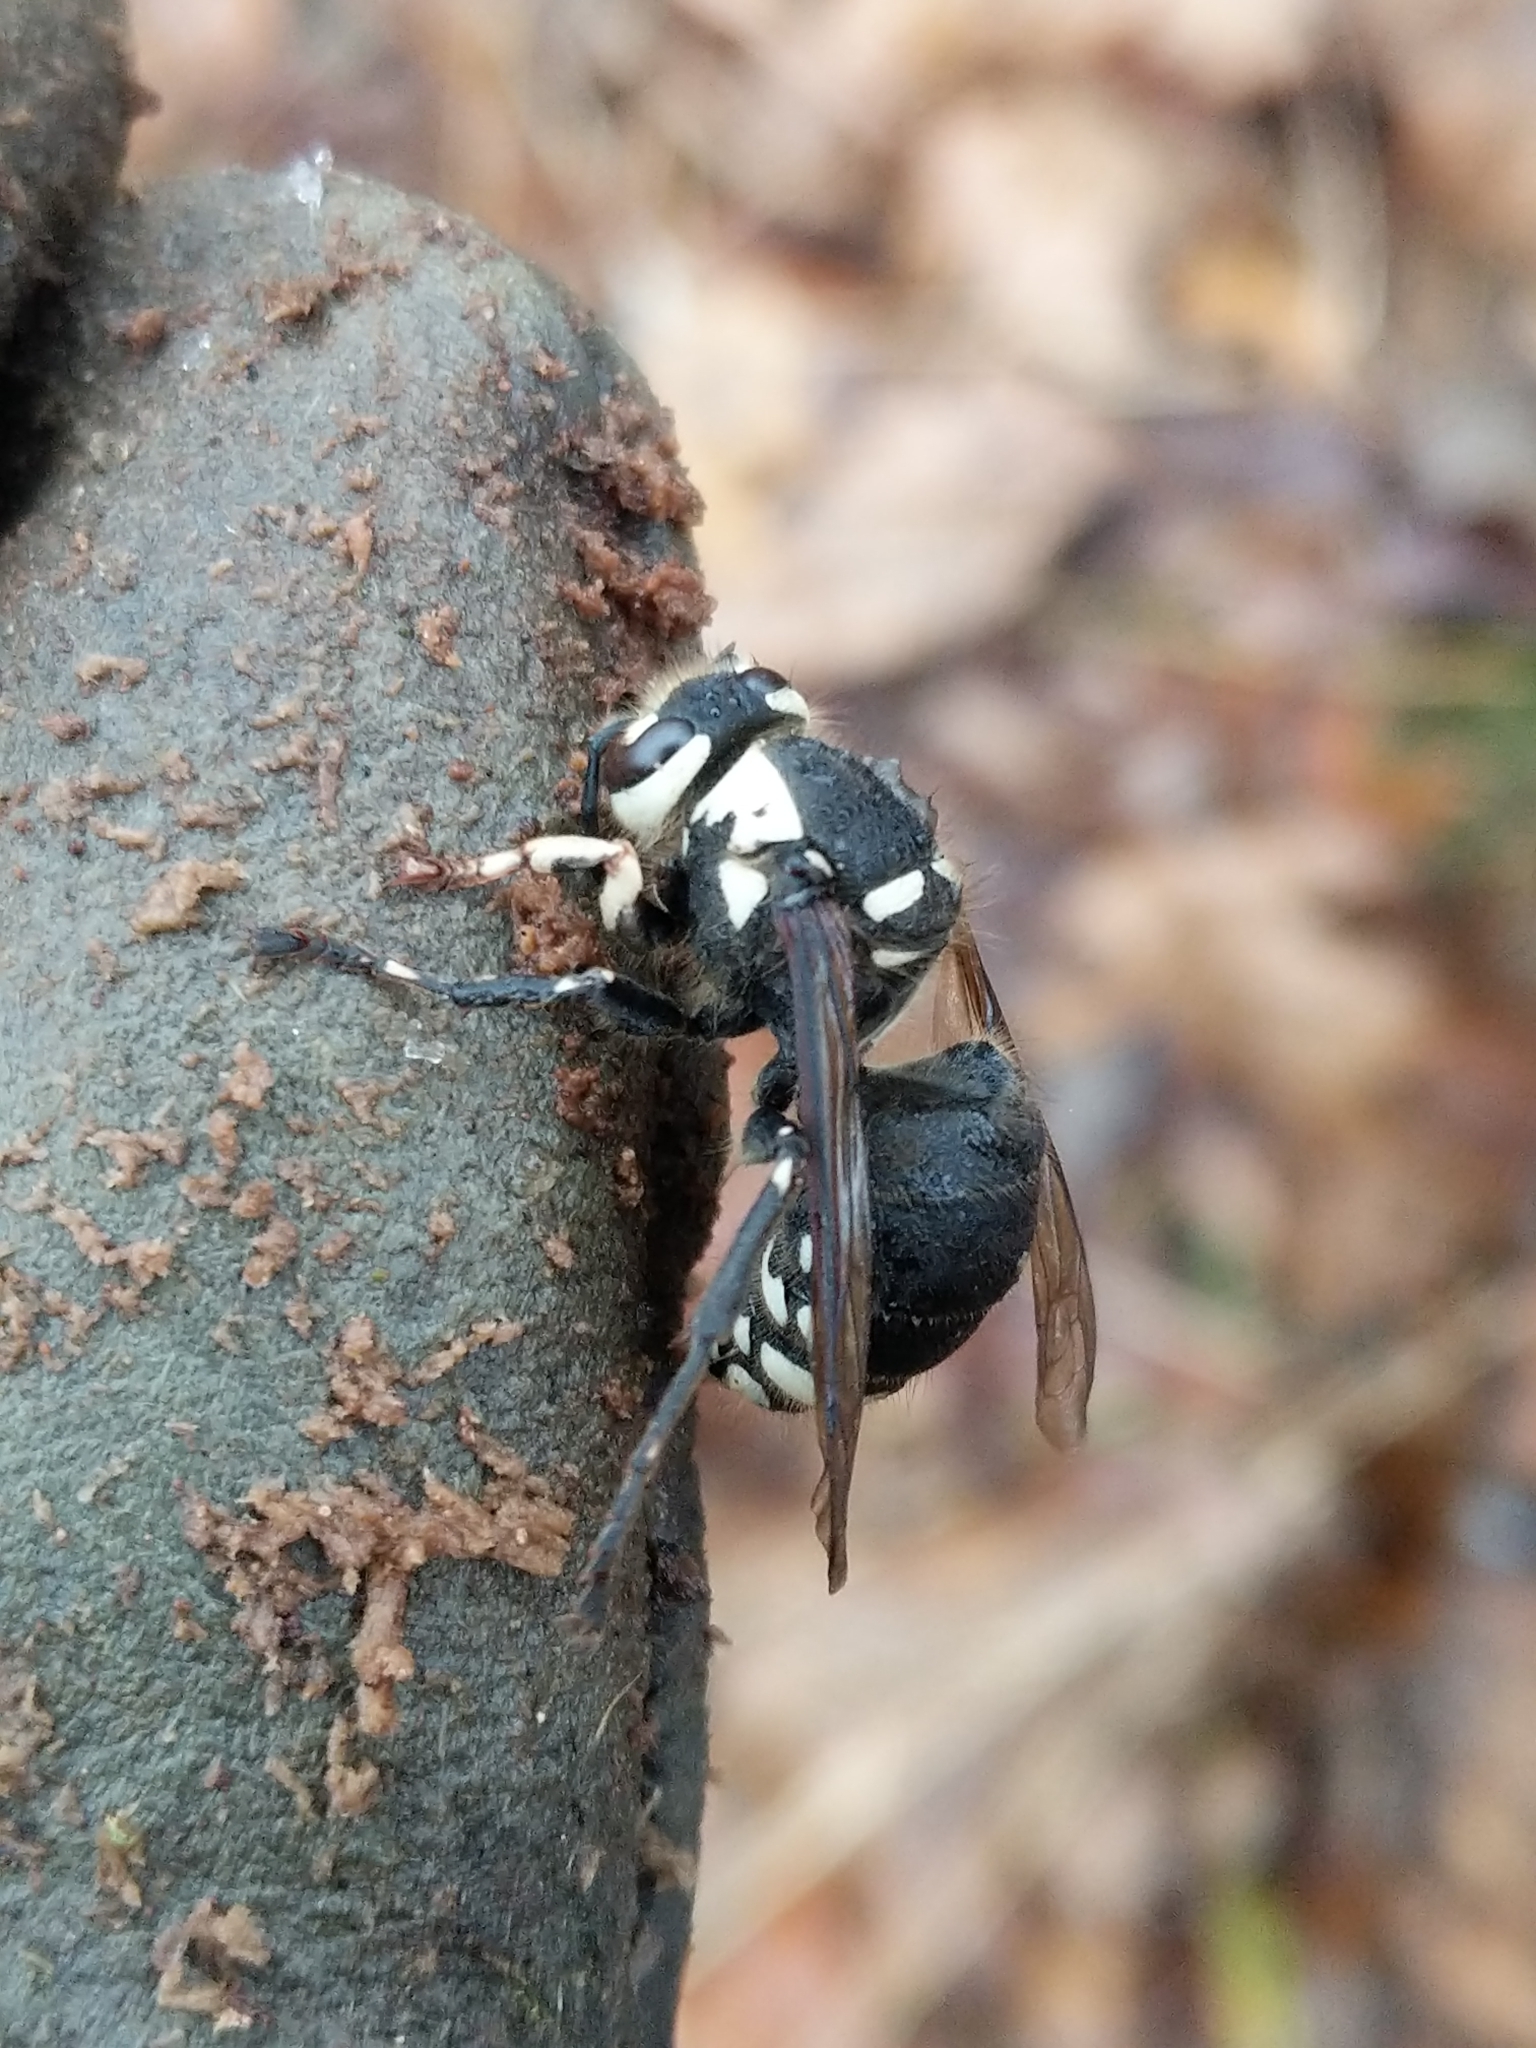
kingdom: Animalia
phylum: Arthropoda
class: Insecta
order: Hymenoptera
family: Vespidae
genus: Dolichovespula
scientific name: Dolichovespula maculata
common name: Bald-faced hornet
